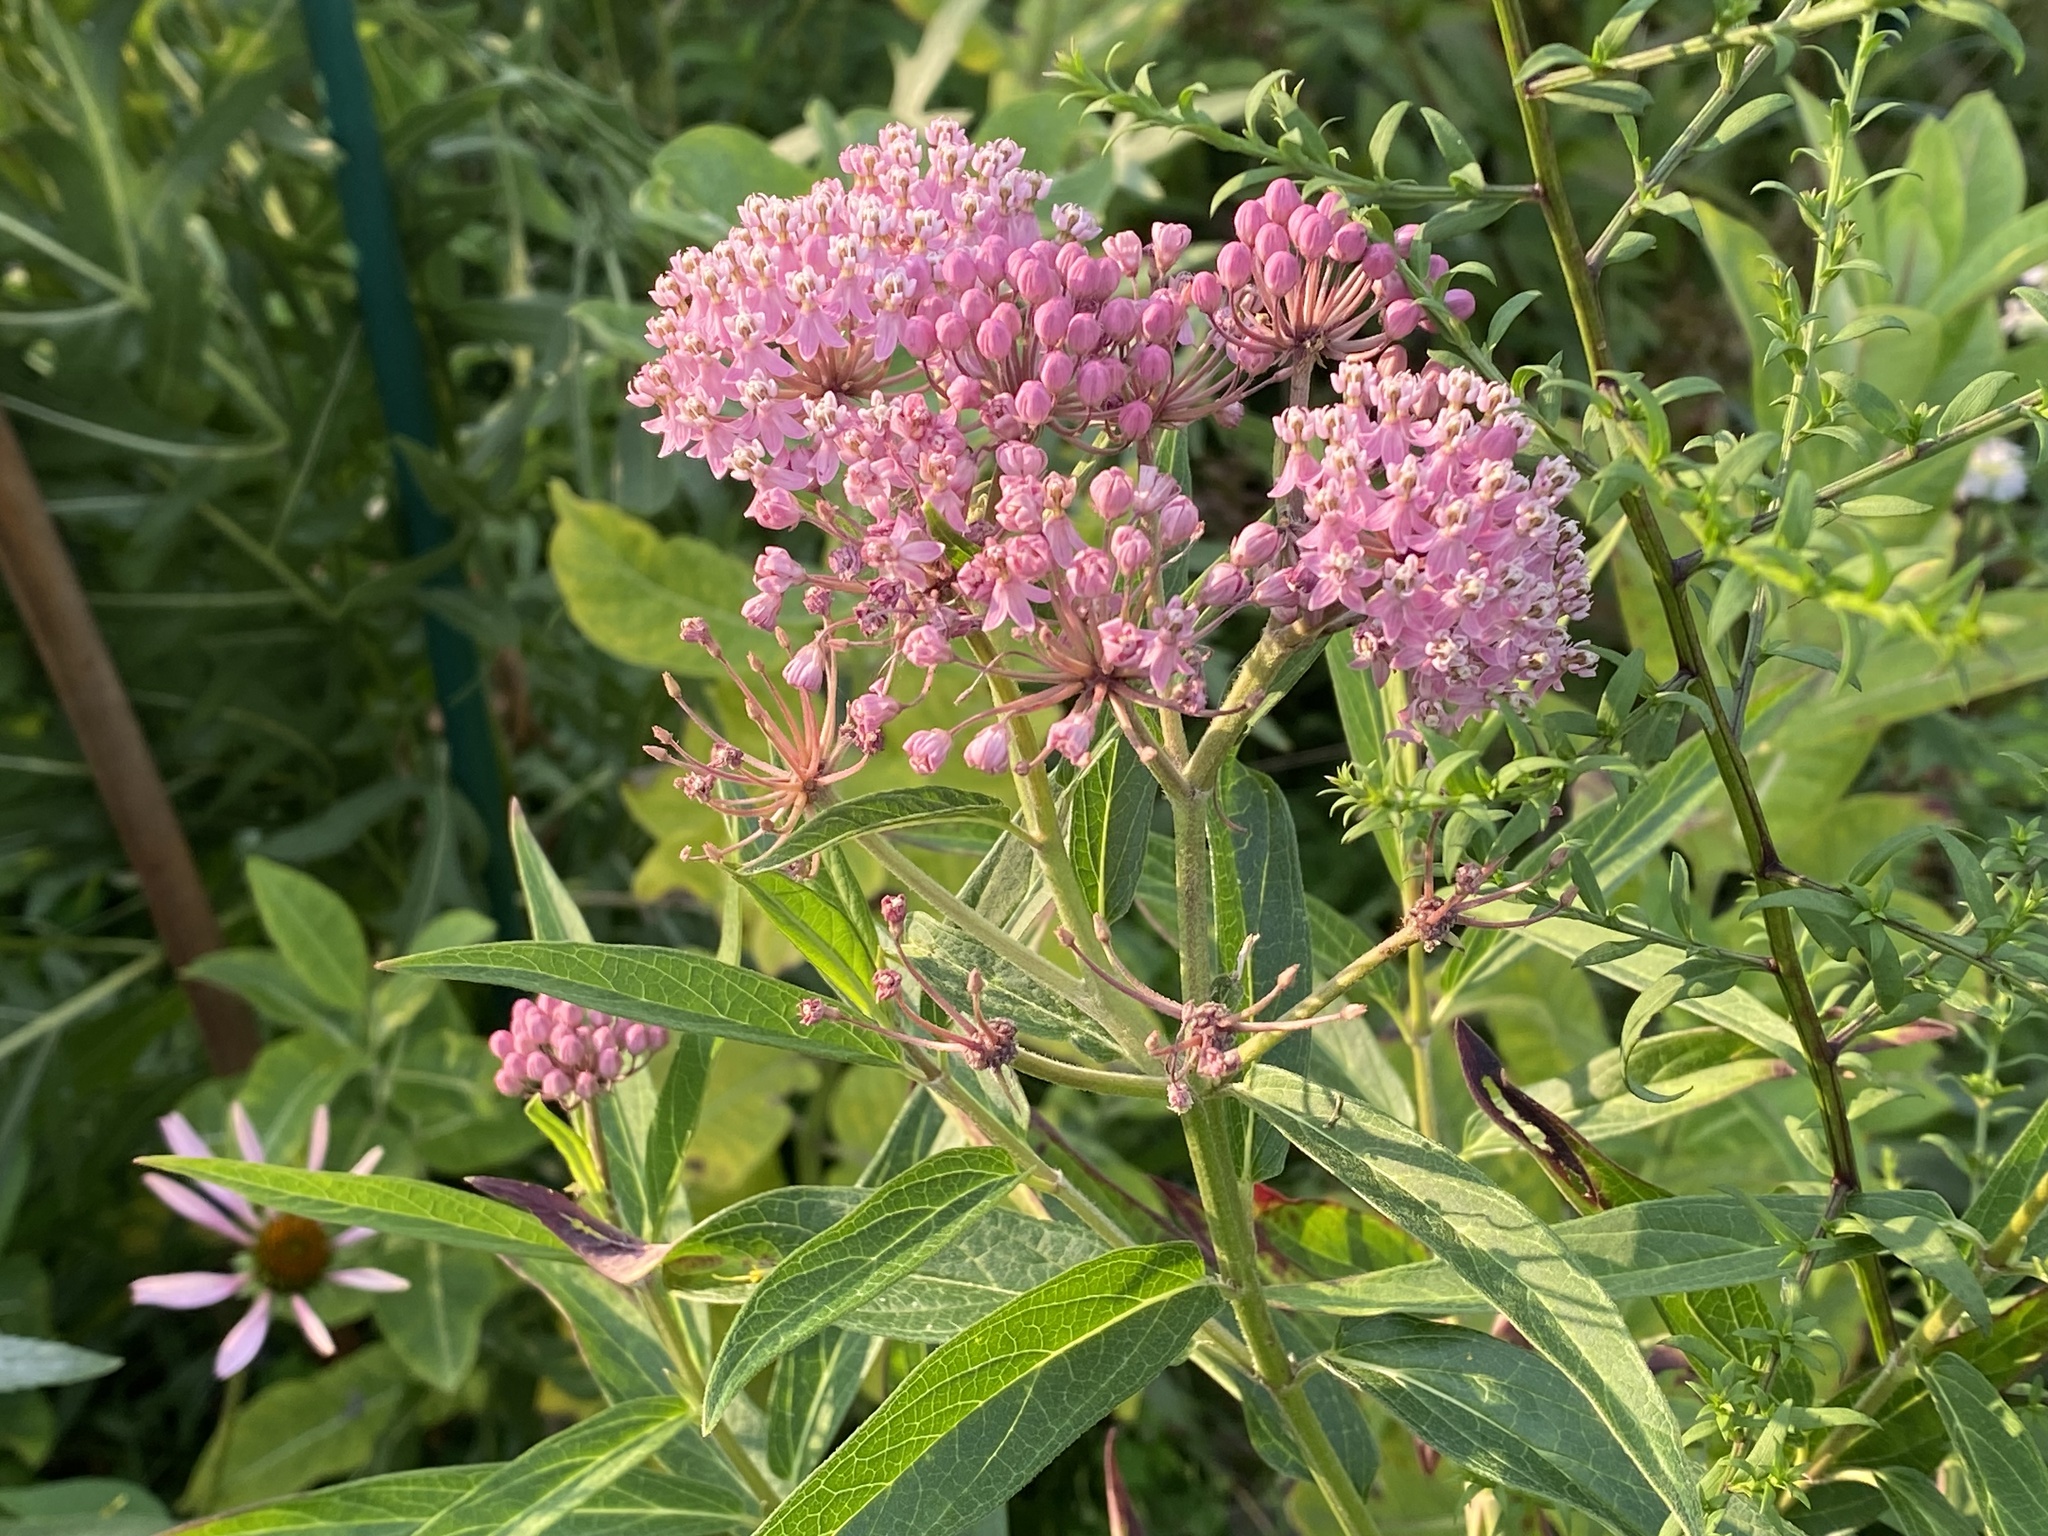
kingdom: Plantae
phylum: Tracheophyta
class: Magnoliopsida
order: Gentianales
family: Apocynaceae
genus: Asclepias
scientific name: Asclepias incarnata
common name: Swamp milkweed
